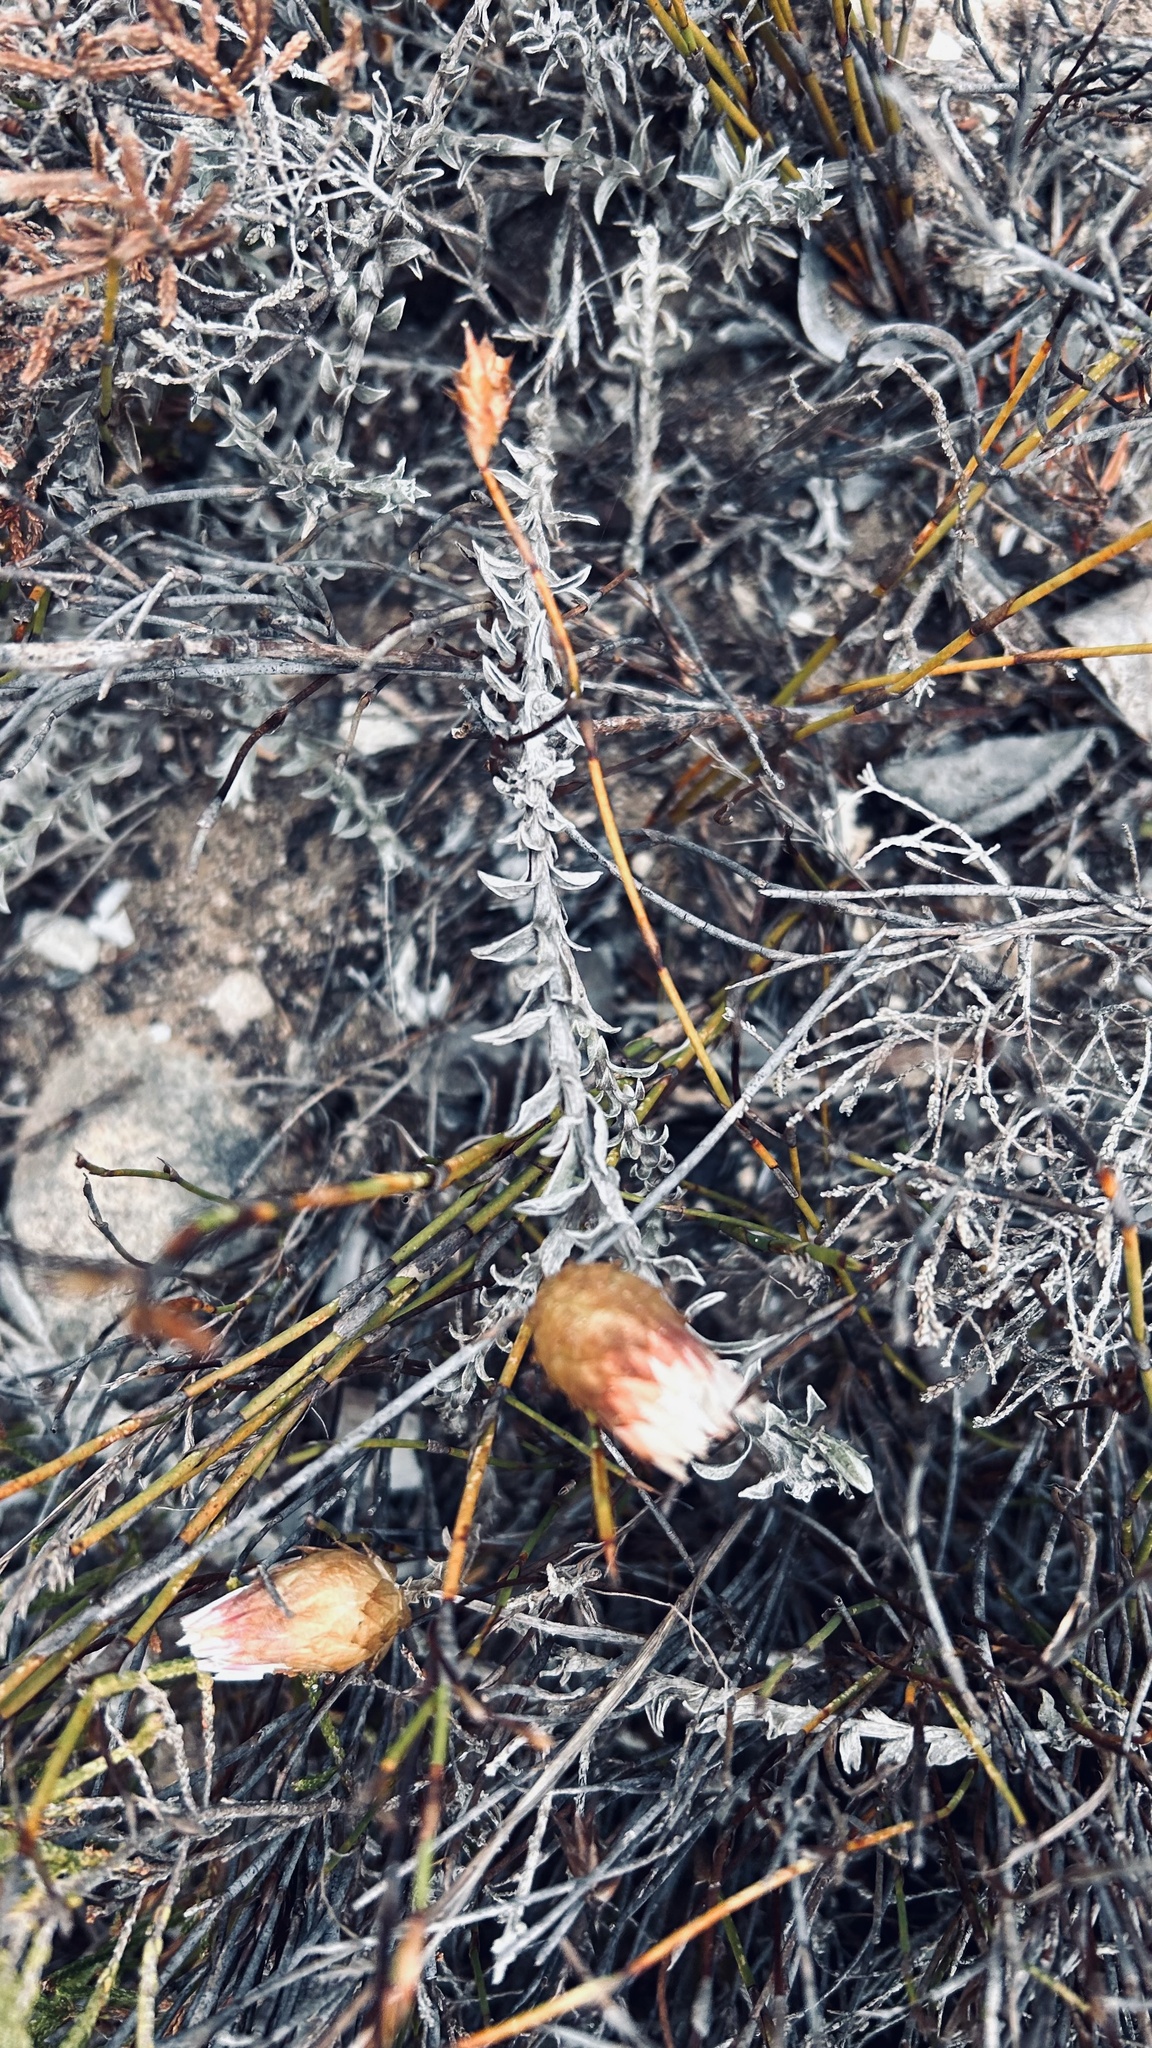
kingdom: Plantae
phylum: Tracheophyta
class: Magnoliopsida
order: Asterales
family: Asteraceae
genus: Helichrysum
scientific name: Helichrysum retortum
